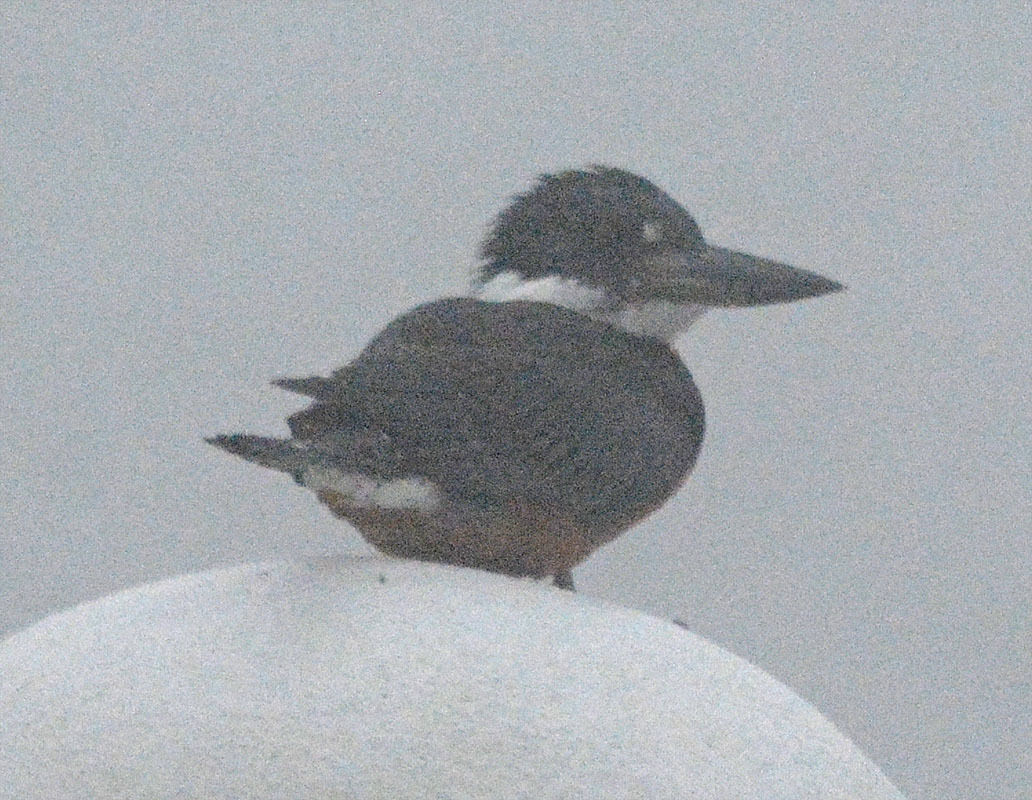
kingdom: Animalia
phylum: Chordata
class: Aves
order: Coraciiformes
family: Alcedinidae
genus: Megaceryle
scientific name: Megaceryle torquata
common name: Ringed kingfisher
